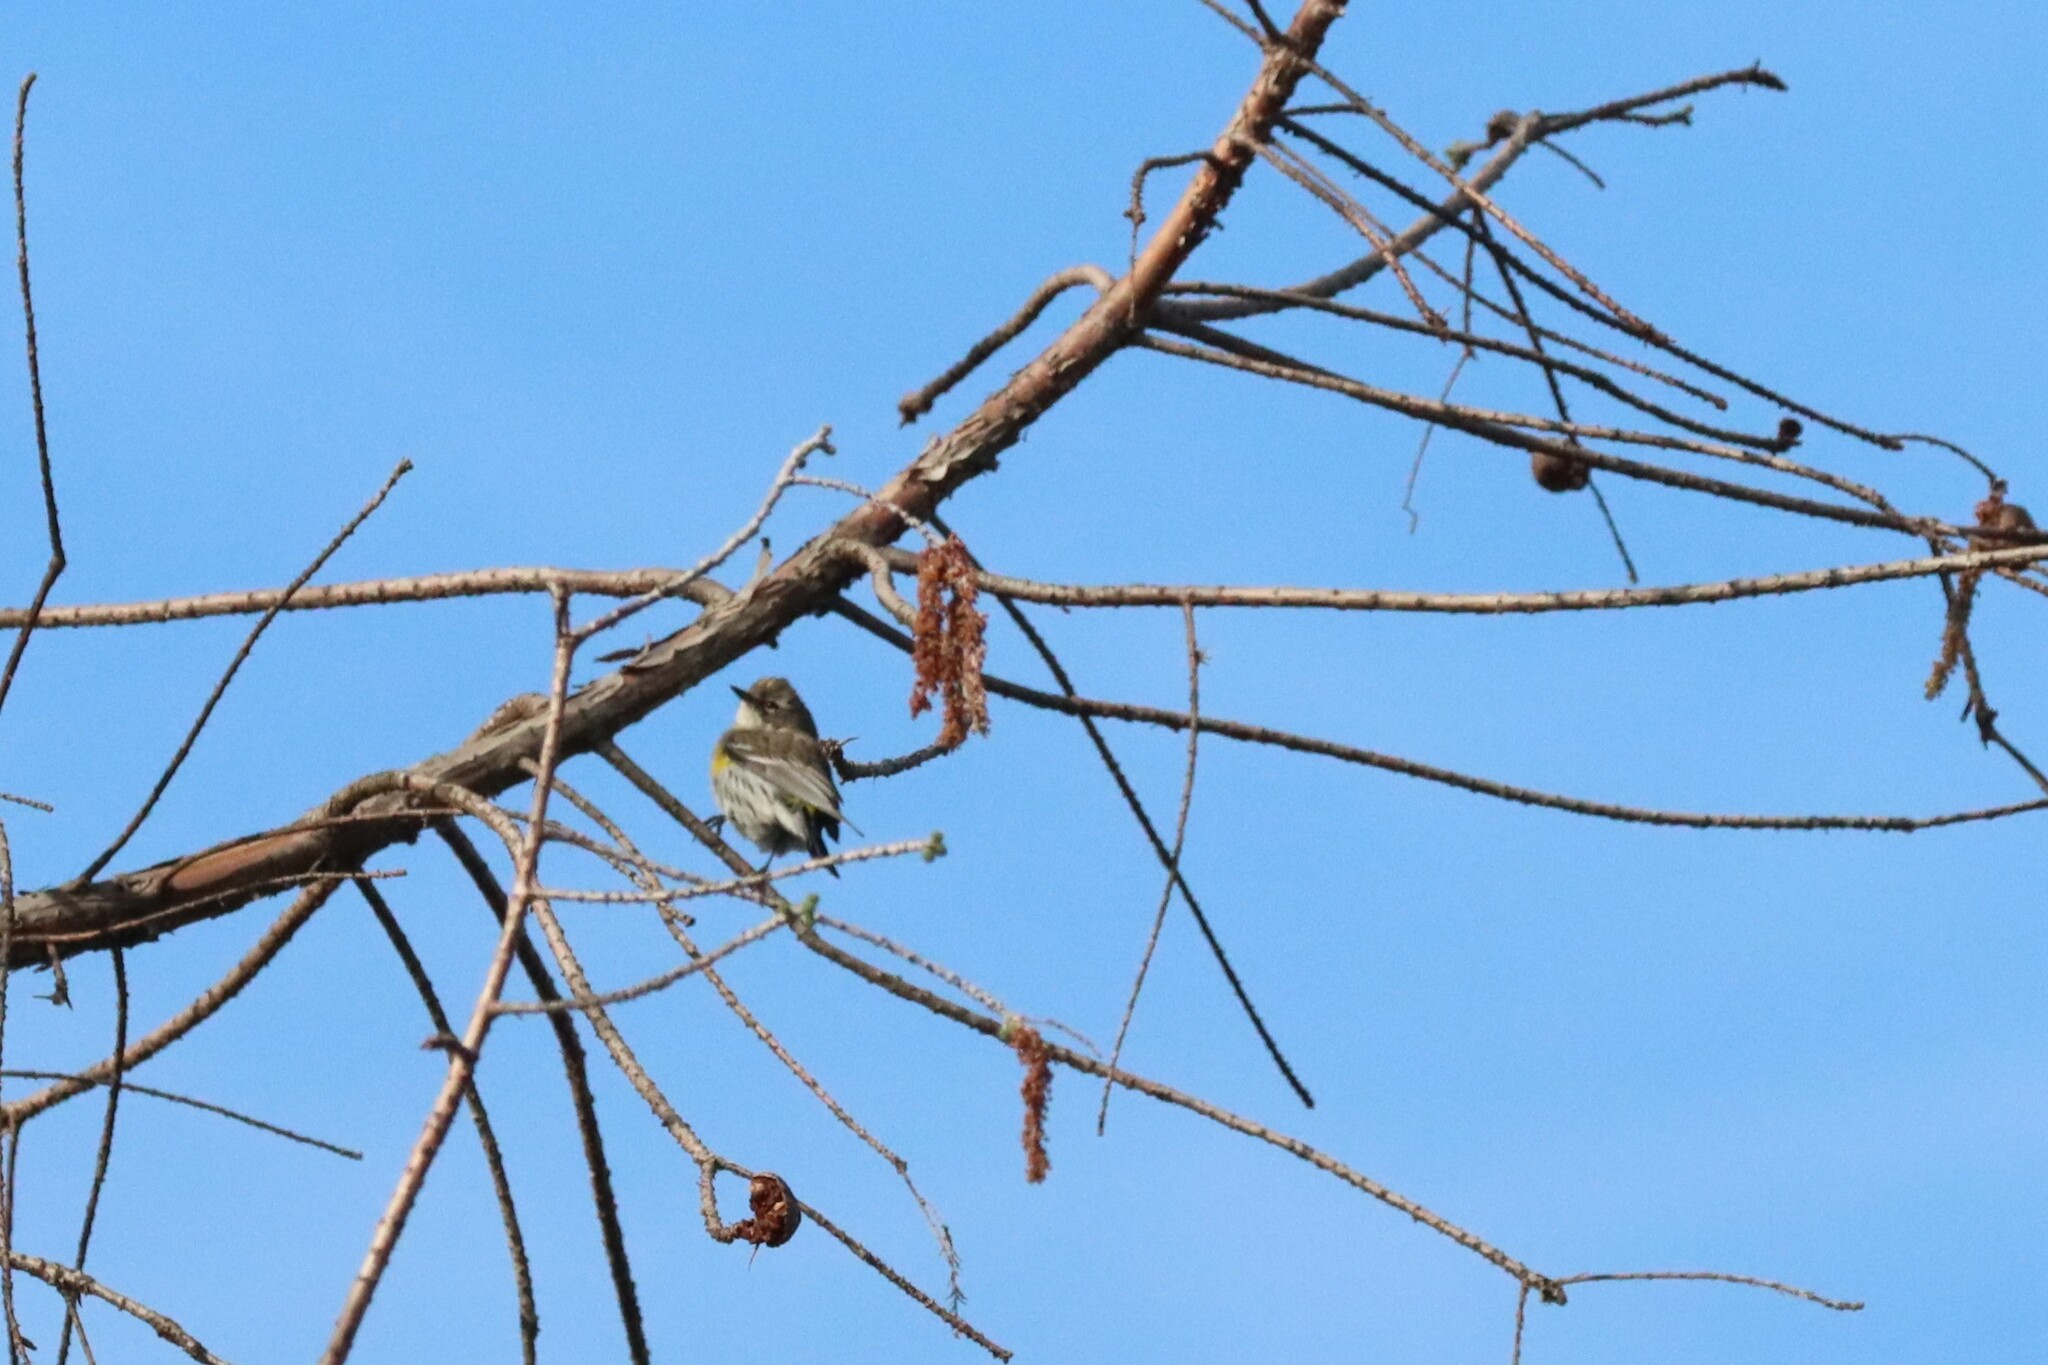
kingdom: Animalia
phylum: Chordata
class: Aves
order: Passeriformes
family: Parulidae
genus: Setophaga
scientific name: Setophaga coronata
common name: Myrtle warbler
